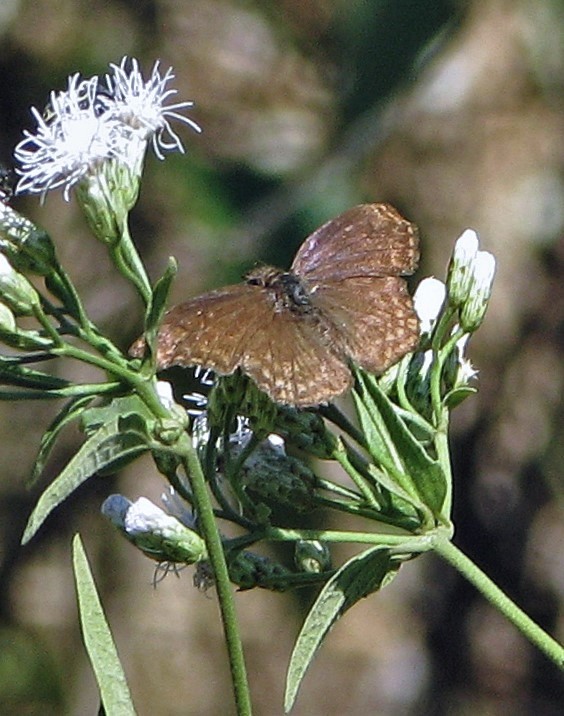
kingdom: Animalia
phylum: Arthropoda
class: Insecta
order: Lepidoptera
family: Hesperiidae
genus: Anisochoria
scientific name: Anisochoria sublimbata
